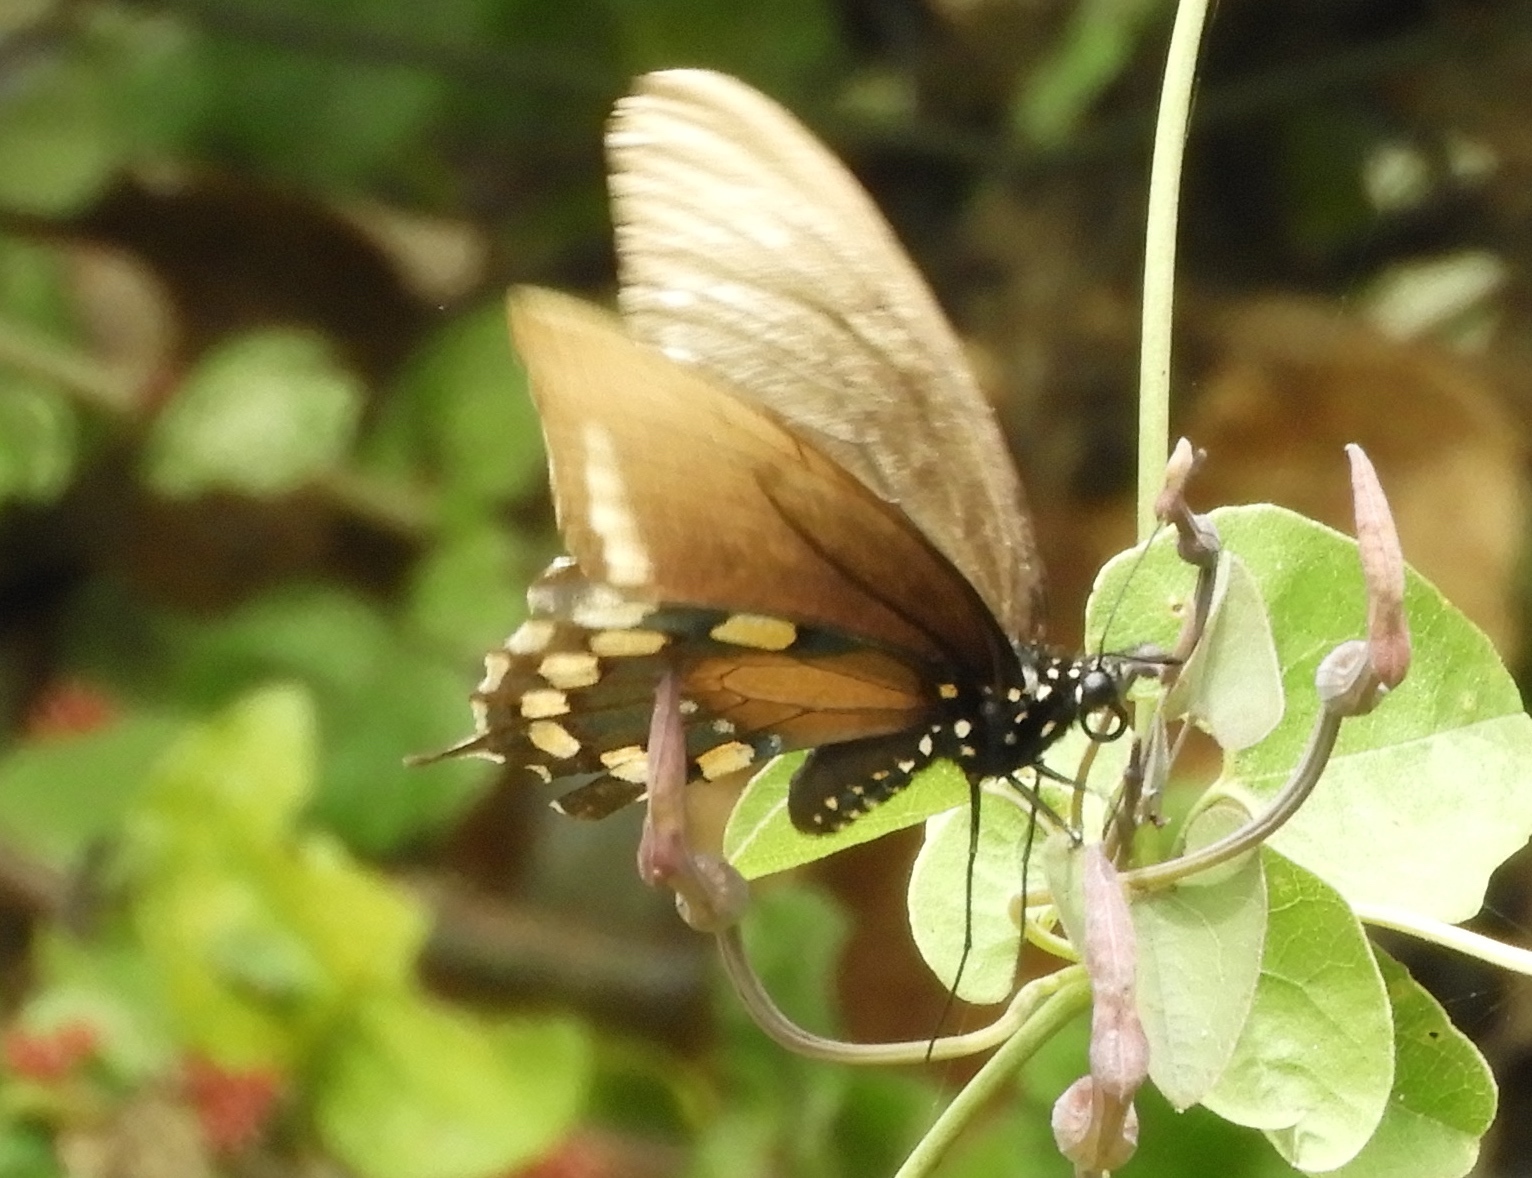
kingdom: Animalia
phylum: Arthropoda
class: Insecta
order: Lepidoptera
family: Papilionidae
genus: Battus
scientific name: Battus philenor
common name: Pipevine swallowtail
